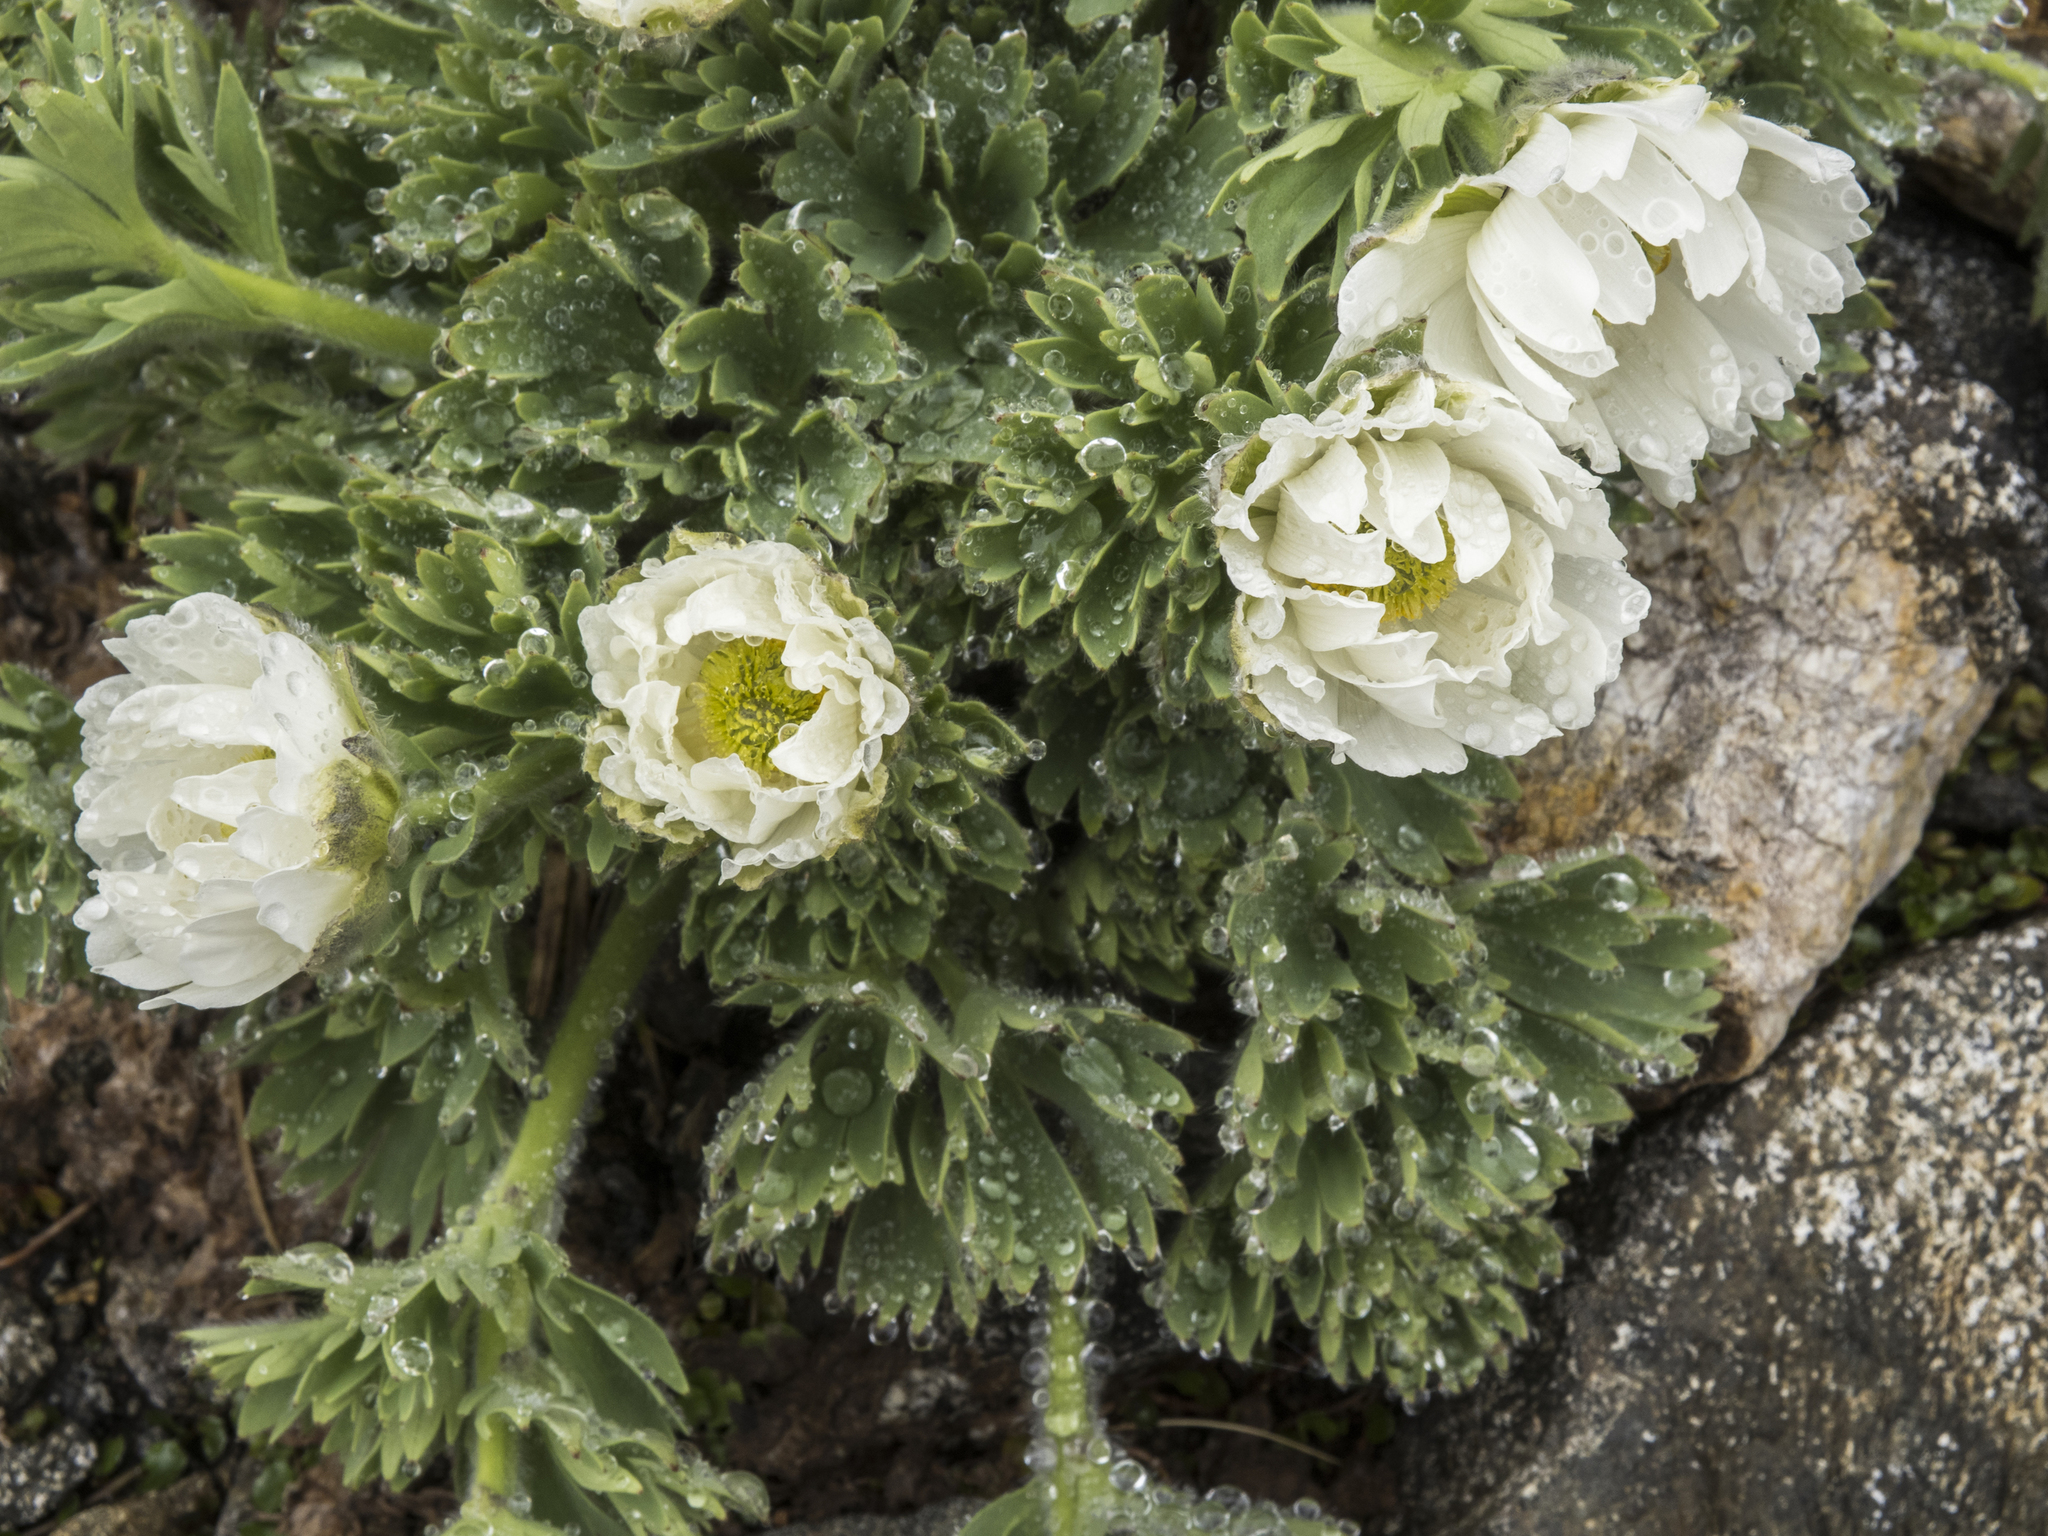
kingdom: Plantae
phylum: Tracheophyta
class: Magnoliopsida
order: Ranunculales
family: Ranunculaceae
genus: Ranunculus
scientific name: Ranunculus buchananii
